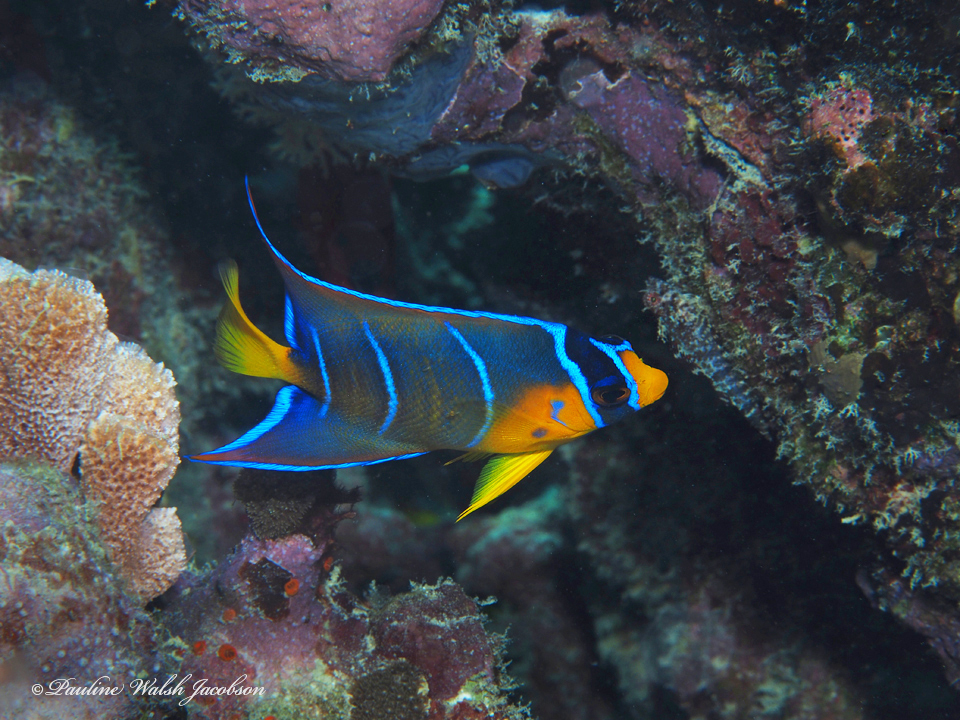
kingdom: Animalia
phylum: Chordata
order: Perciformes
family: Pomacanthidae
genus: Holacanthus
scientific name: Holacanthus ciliaris
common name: Queen angelfish
